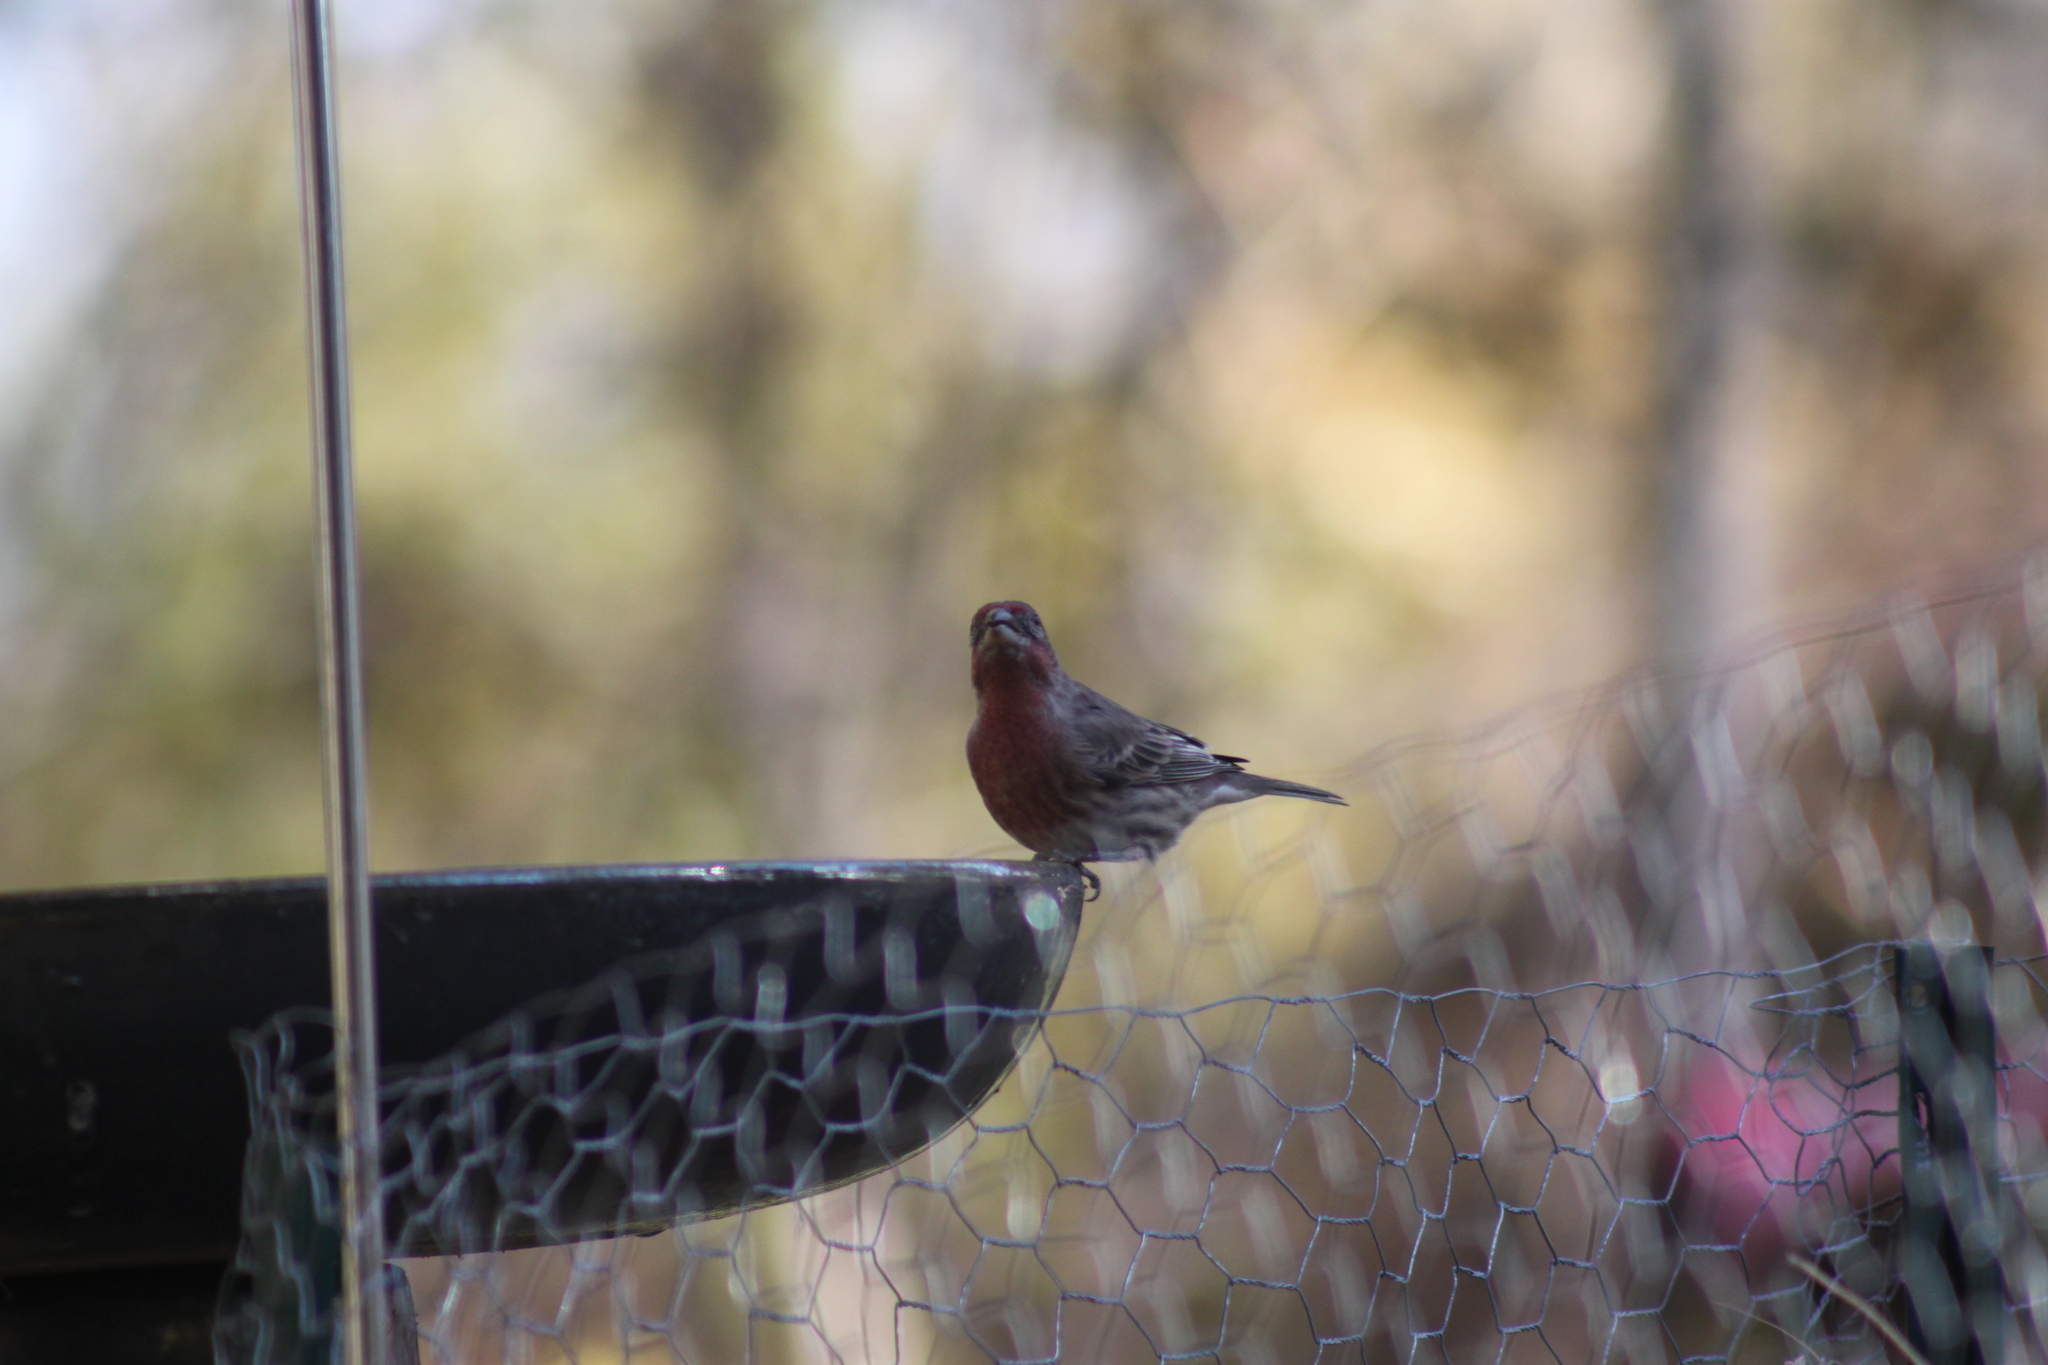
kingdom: Animalia
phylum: Chordata
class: Aves
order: Passeriformes
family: Fringillidae
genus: Haemorhous
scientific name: Haemorhous mexicanus
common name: House finch
